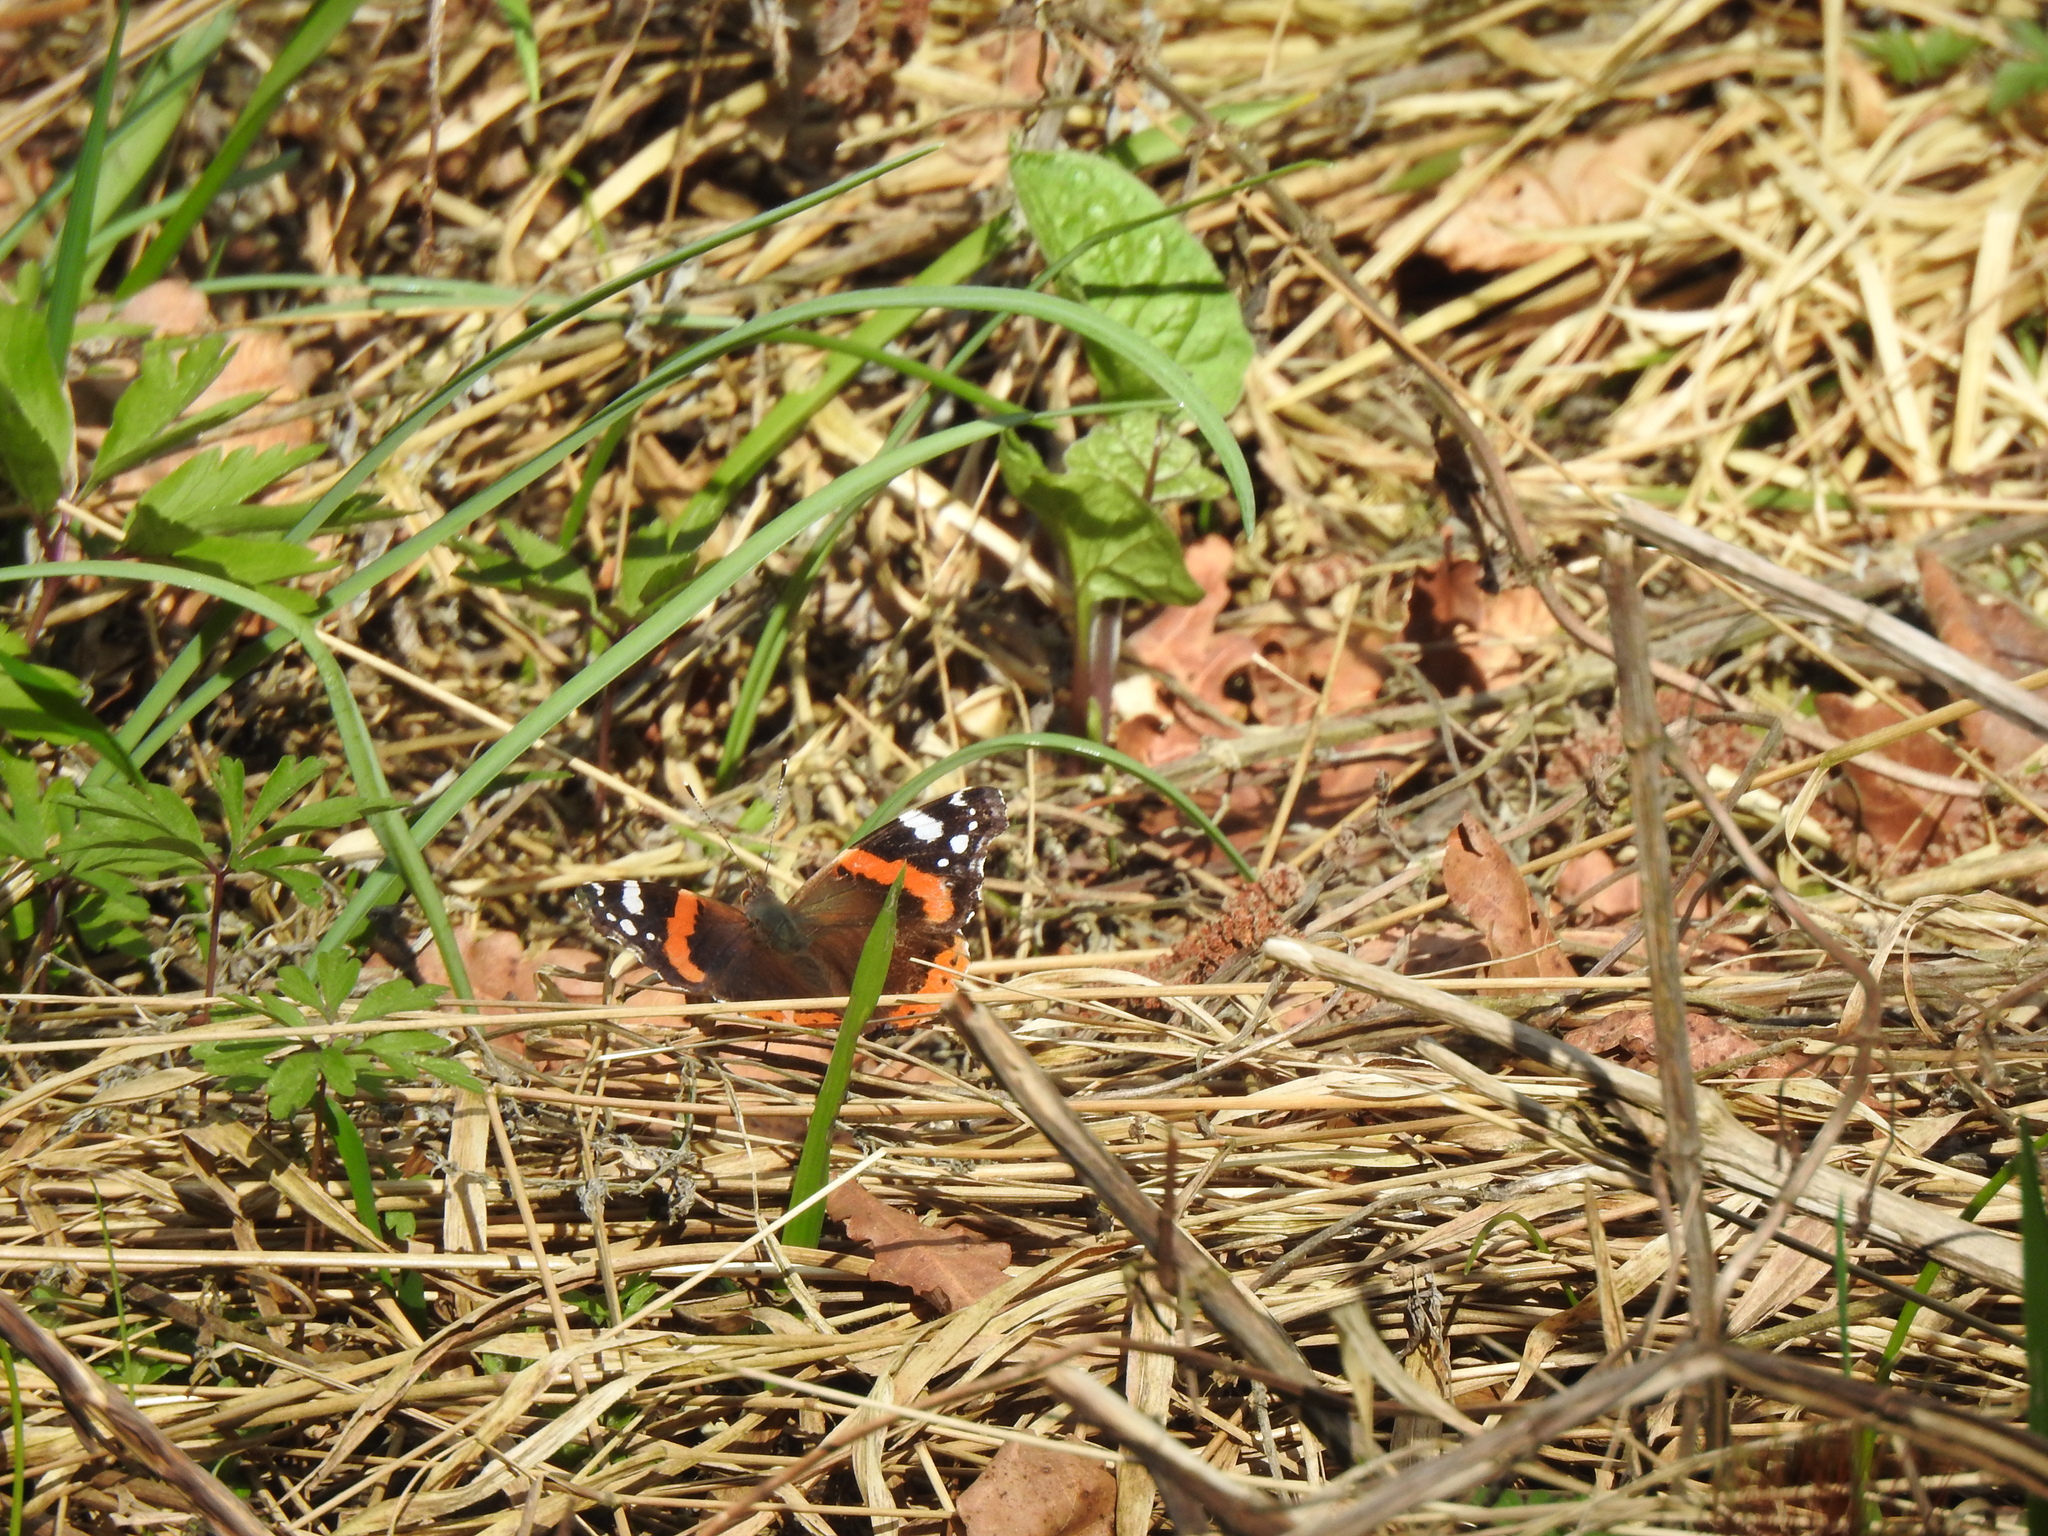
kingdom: Animalia
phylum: Arthropoda
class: Insecta
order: Lepidoptera
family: Nymphalidae
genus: Vanessa
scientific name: Vanessa atalanta
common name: Red admiral
